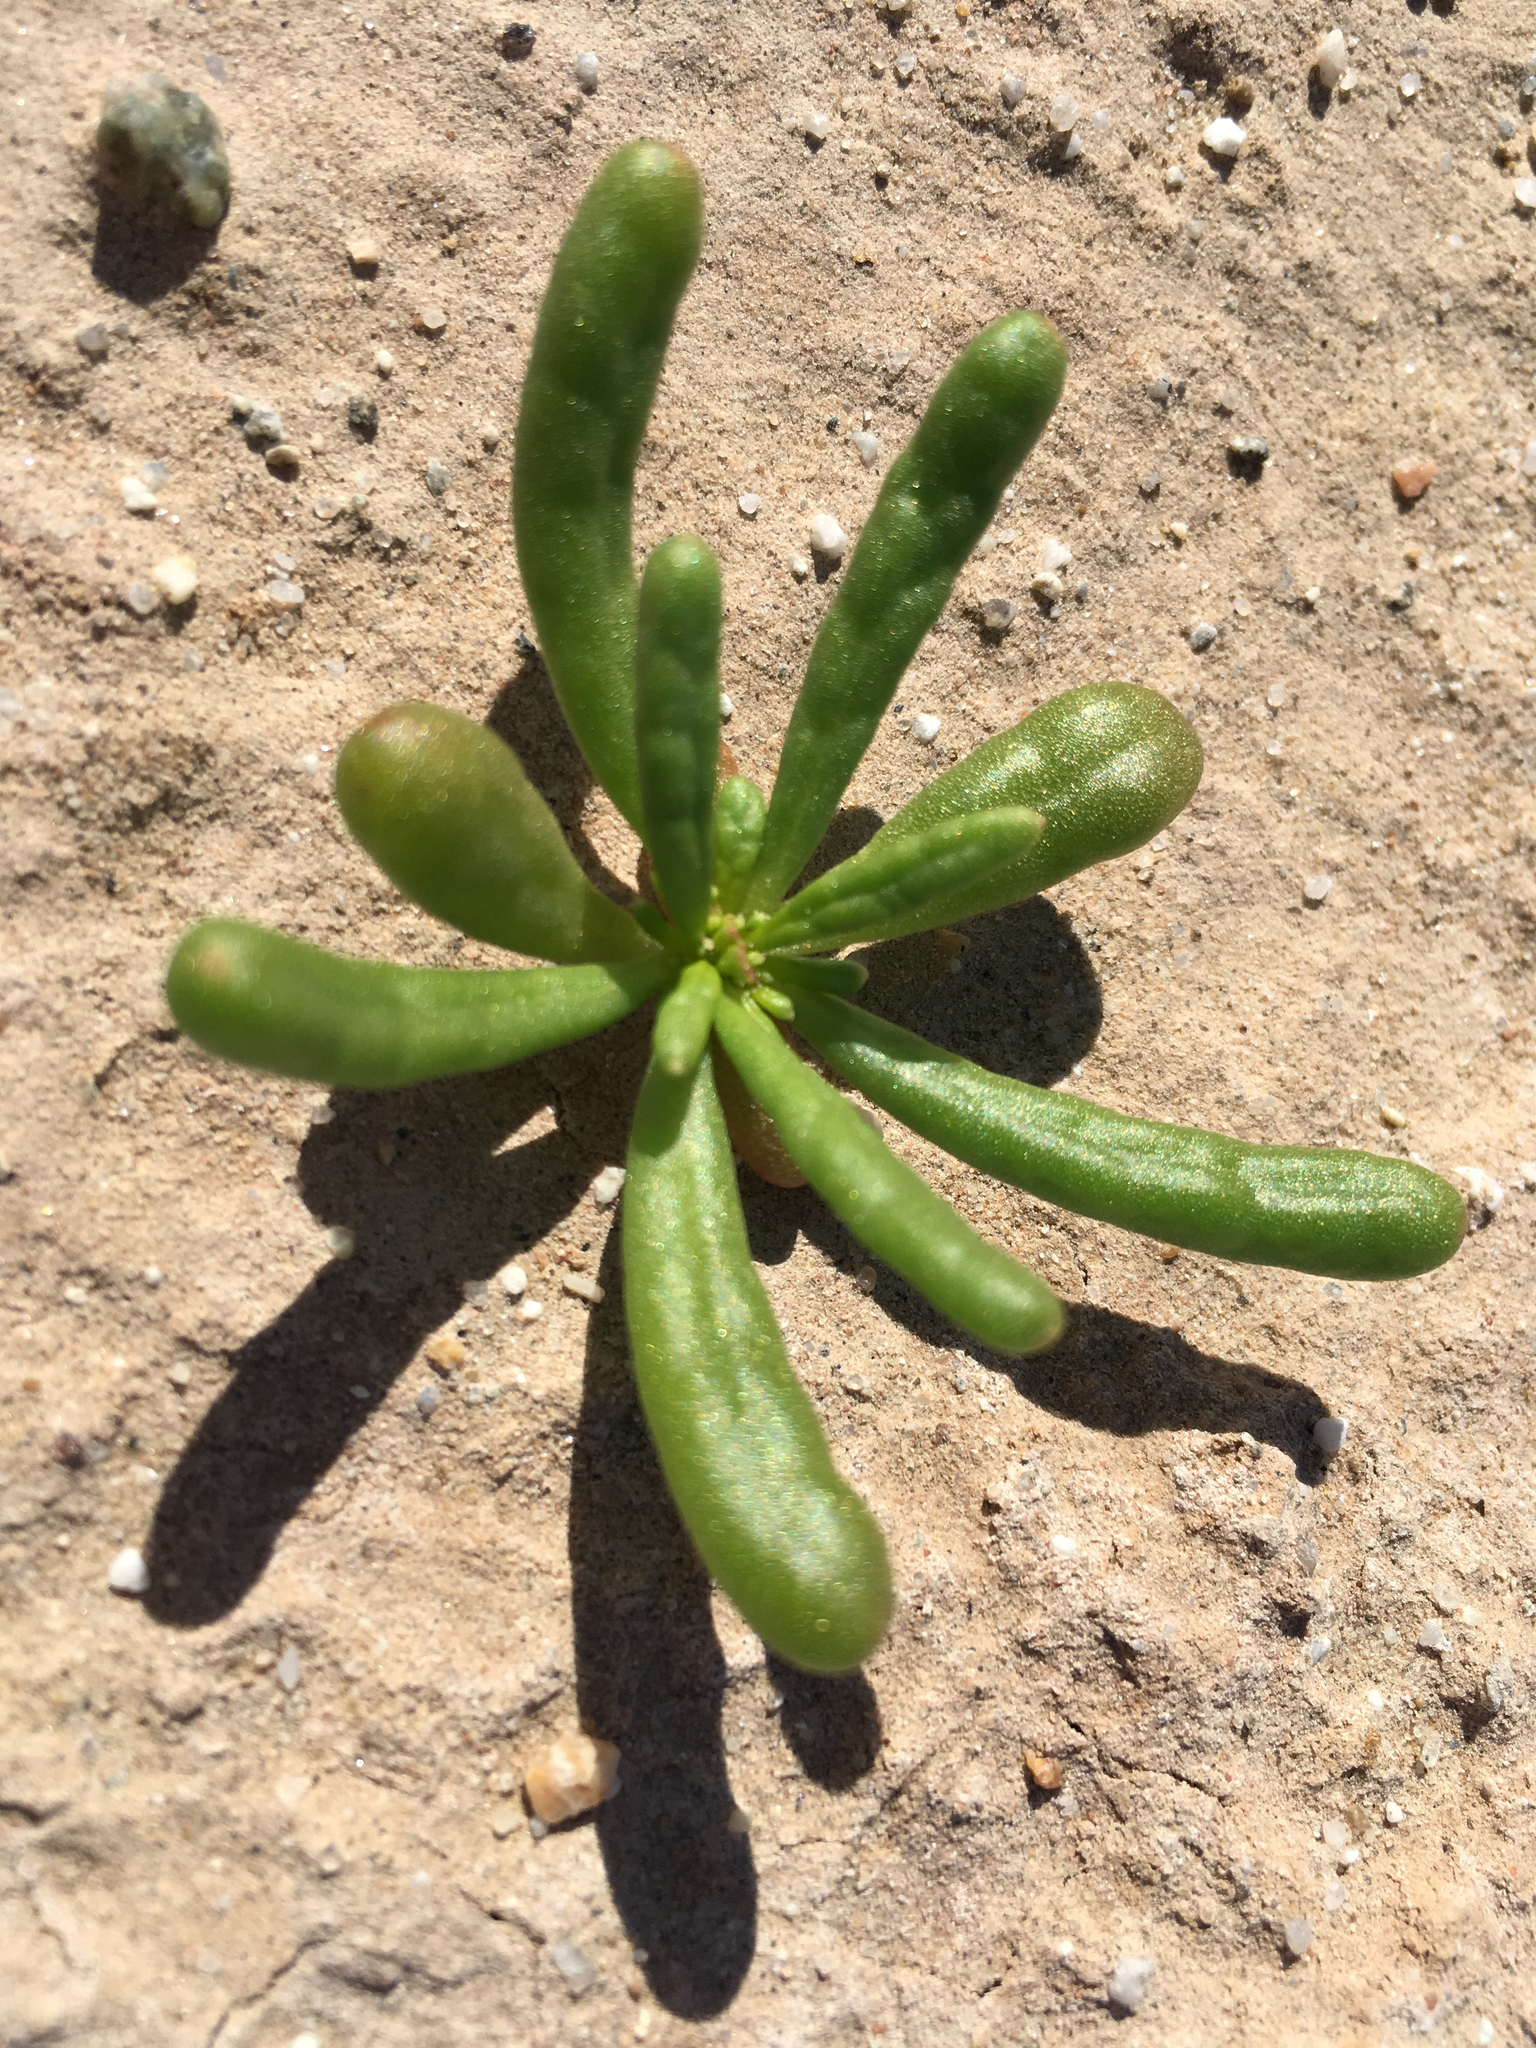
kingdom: Plantae
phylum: Tracheophyta
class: Magnoliopsida
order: Caryophyllales
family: Montiaceae
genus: Thingia
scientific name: Thingia ambigua
